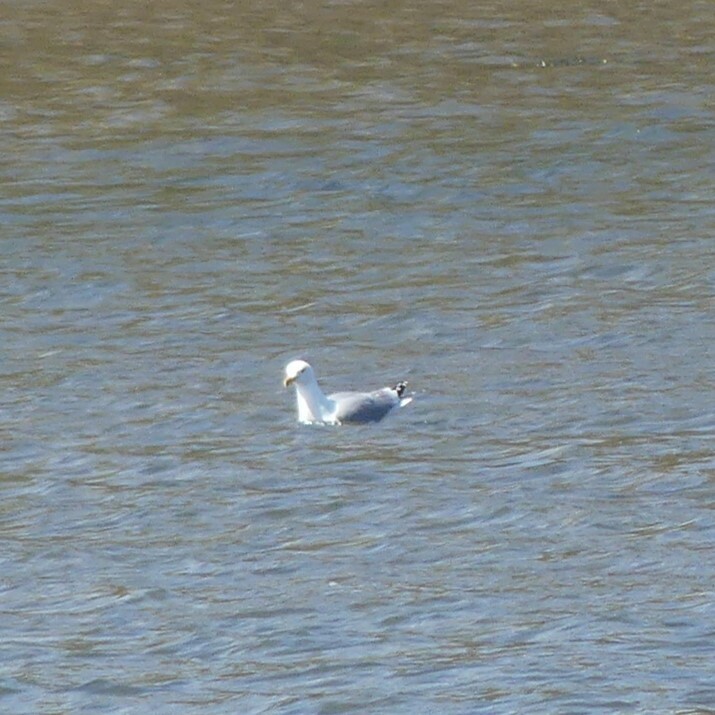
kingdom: Animalia
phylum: Chordata
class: Aves
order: Charadriiformes
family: Laridae
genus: Larus
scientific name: Larus argentatus
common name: Herring gull
